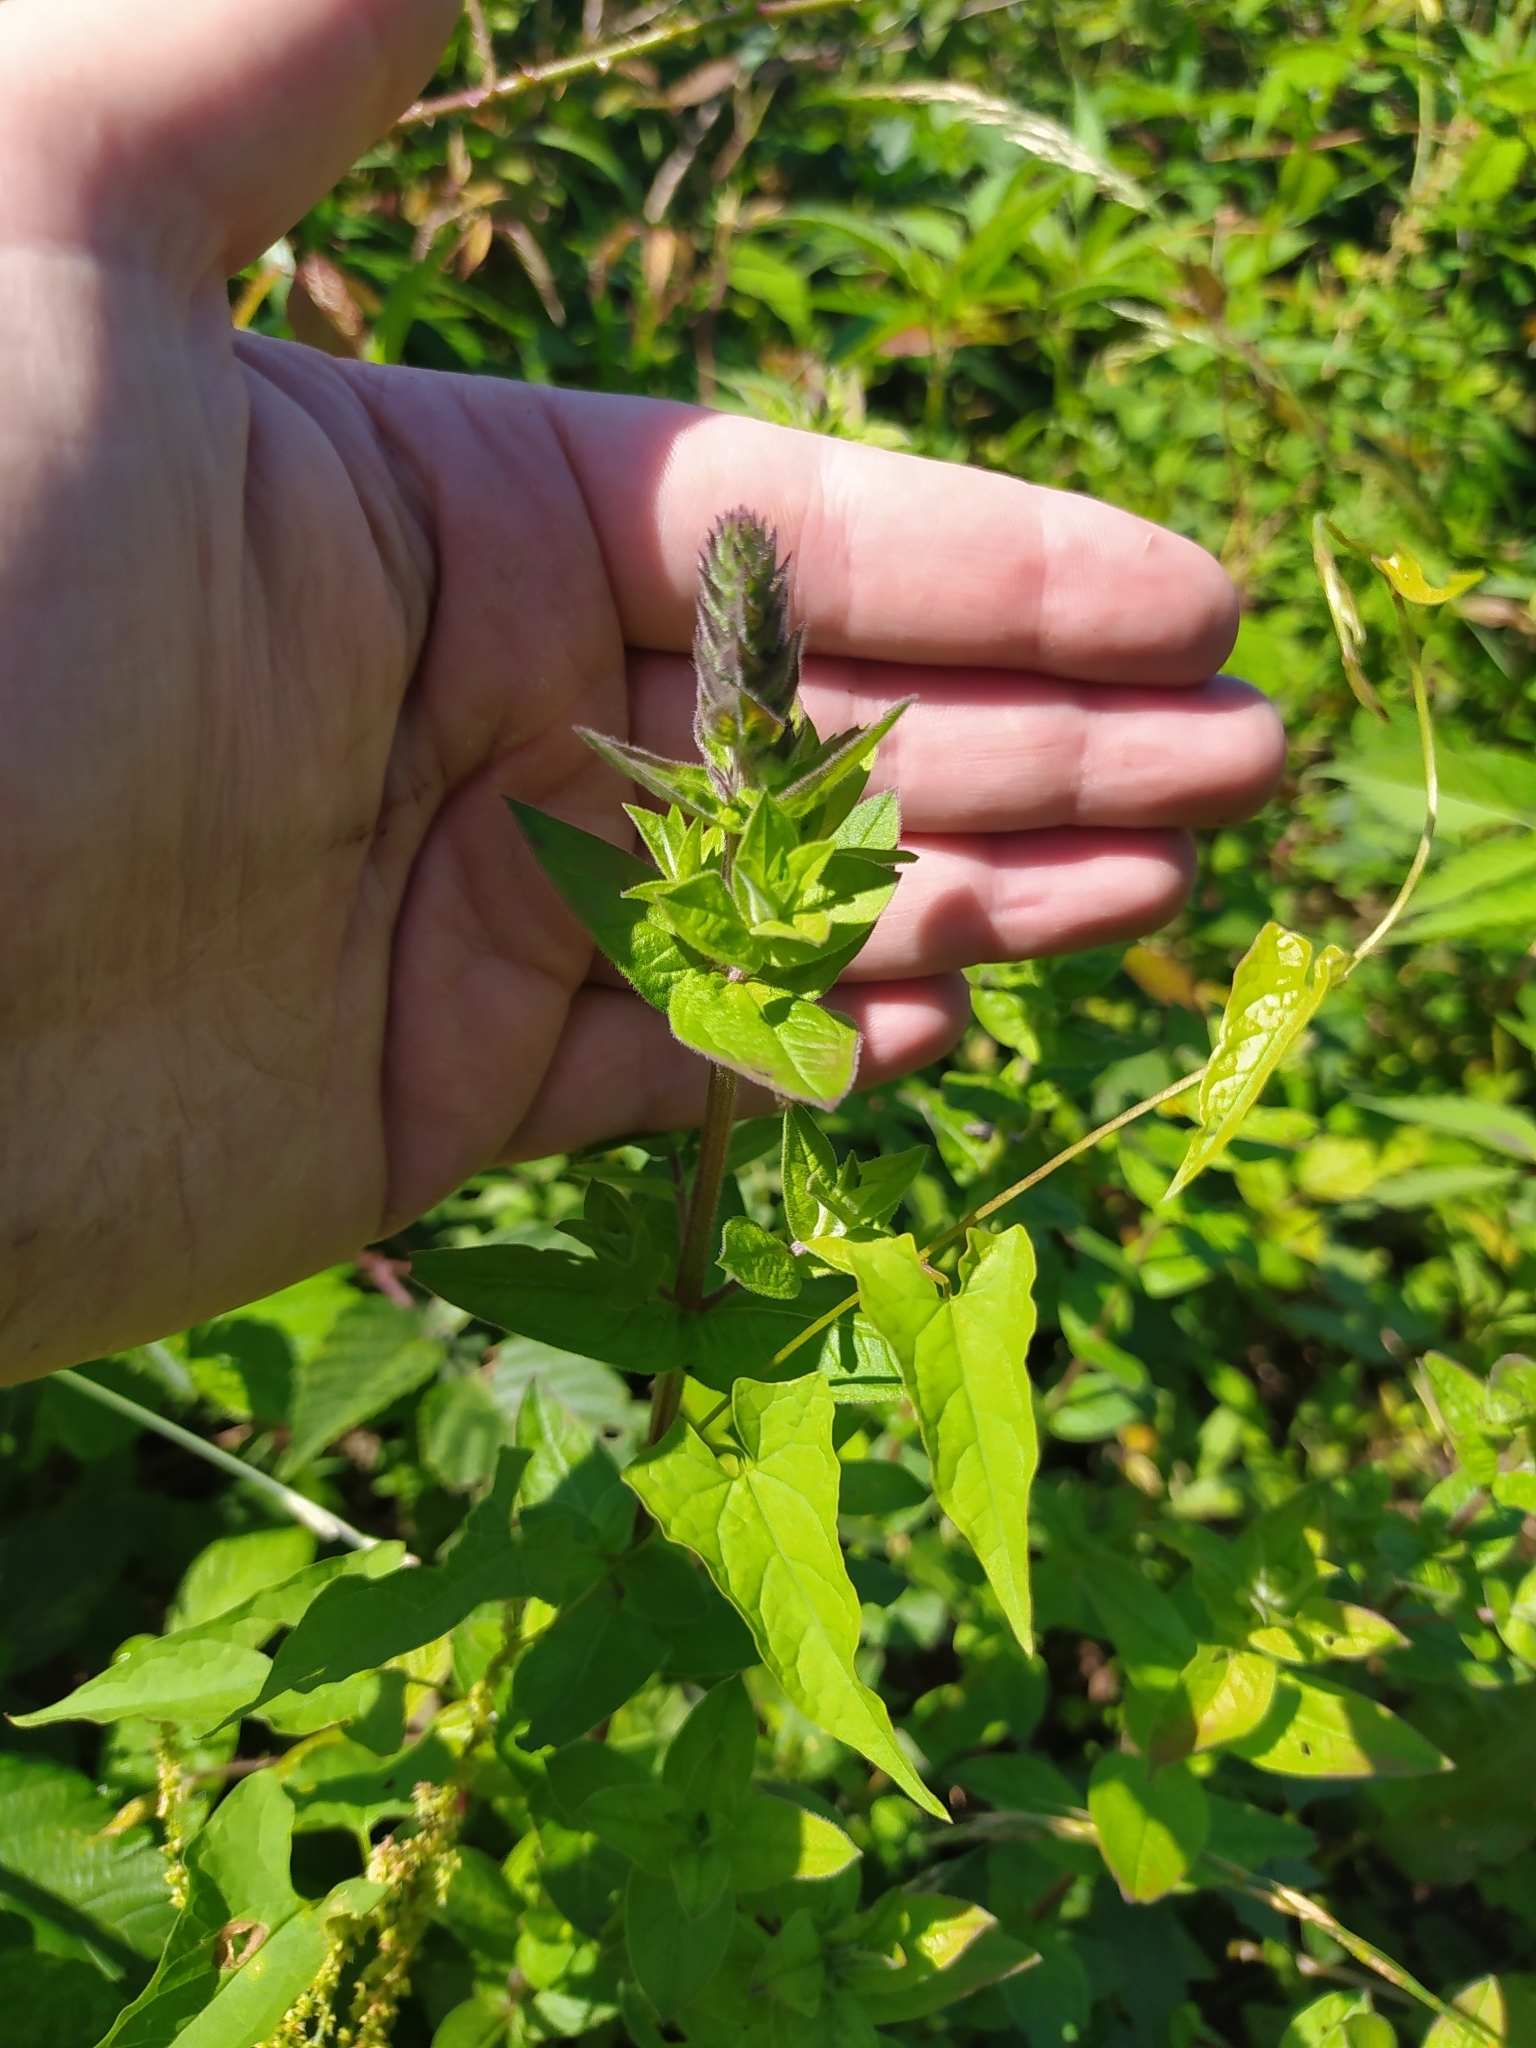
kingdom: Plantae
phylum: Tracheophyta
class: Magnoliopsida
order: Myrtales
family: Lythraceae
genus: Lythrum
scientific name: Lythrum salicaria
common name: Purple loosestrife
